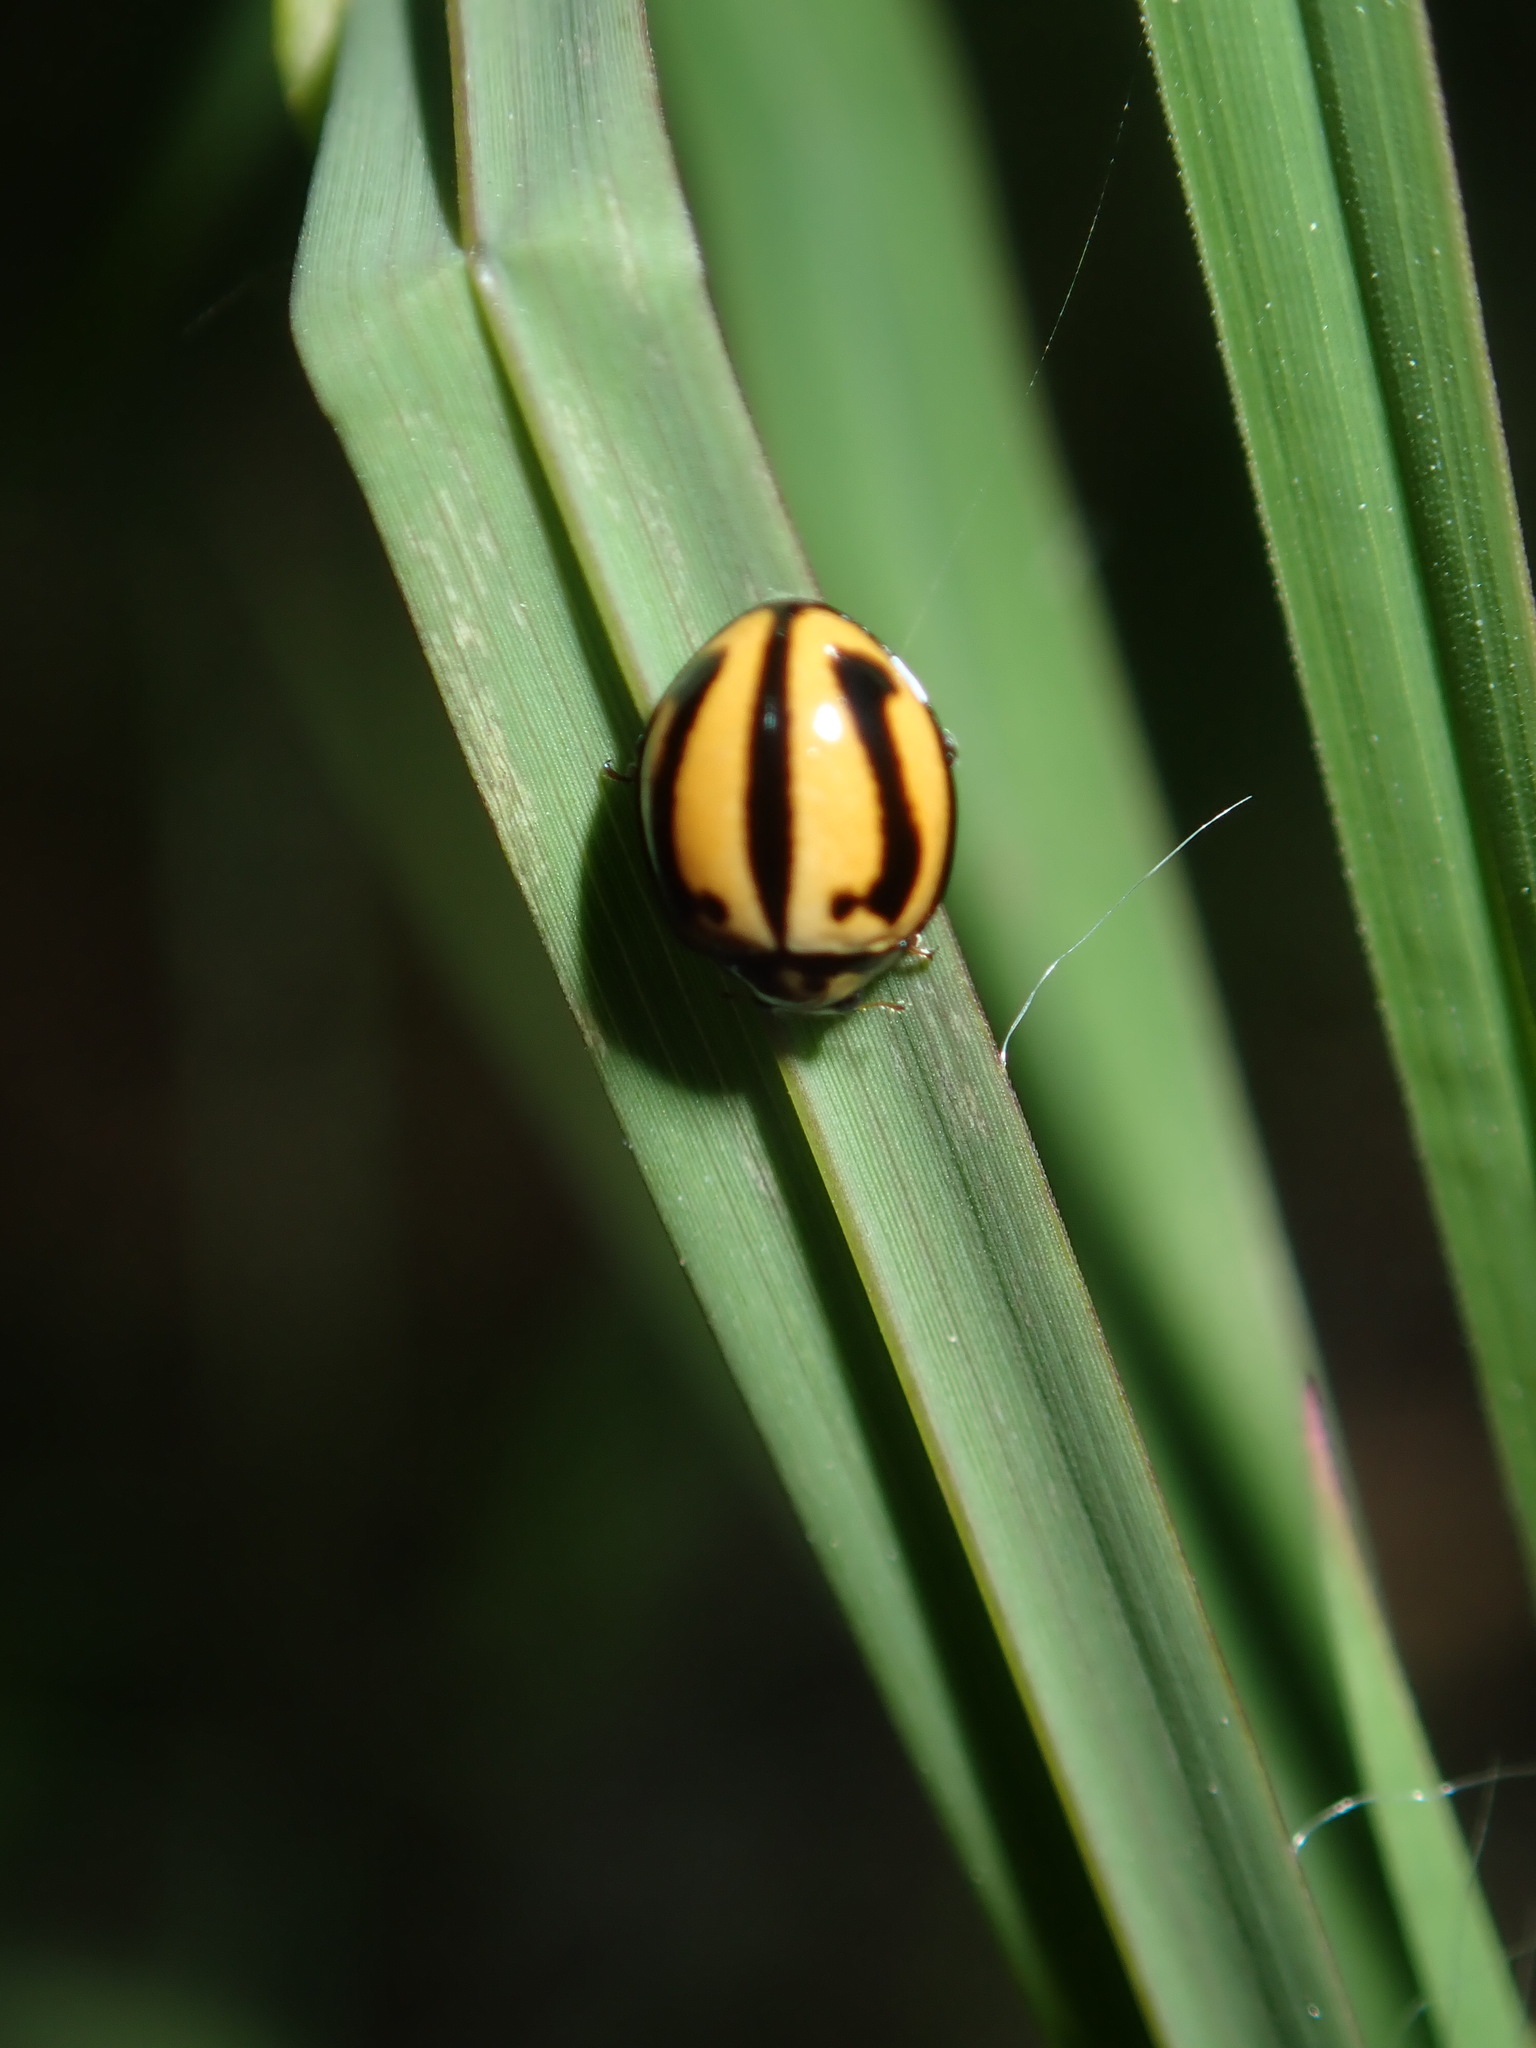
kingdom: Animalia
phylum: Arthropoda
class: Insecta
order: Coleoptera
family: Coccinellidae
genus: Micraspis
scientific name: Micraspis frenata
